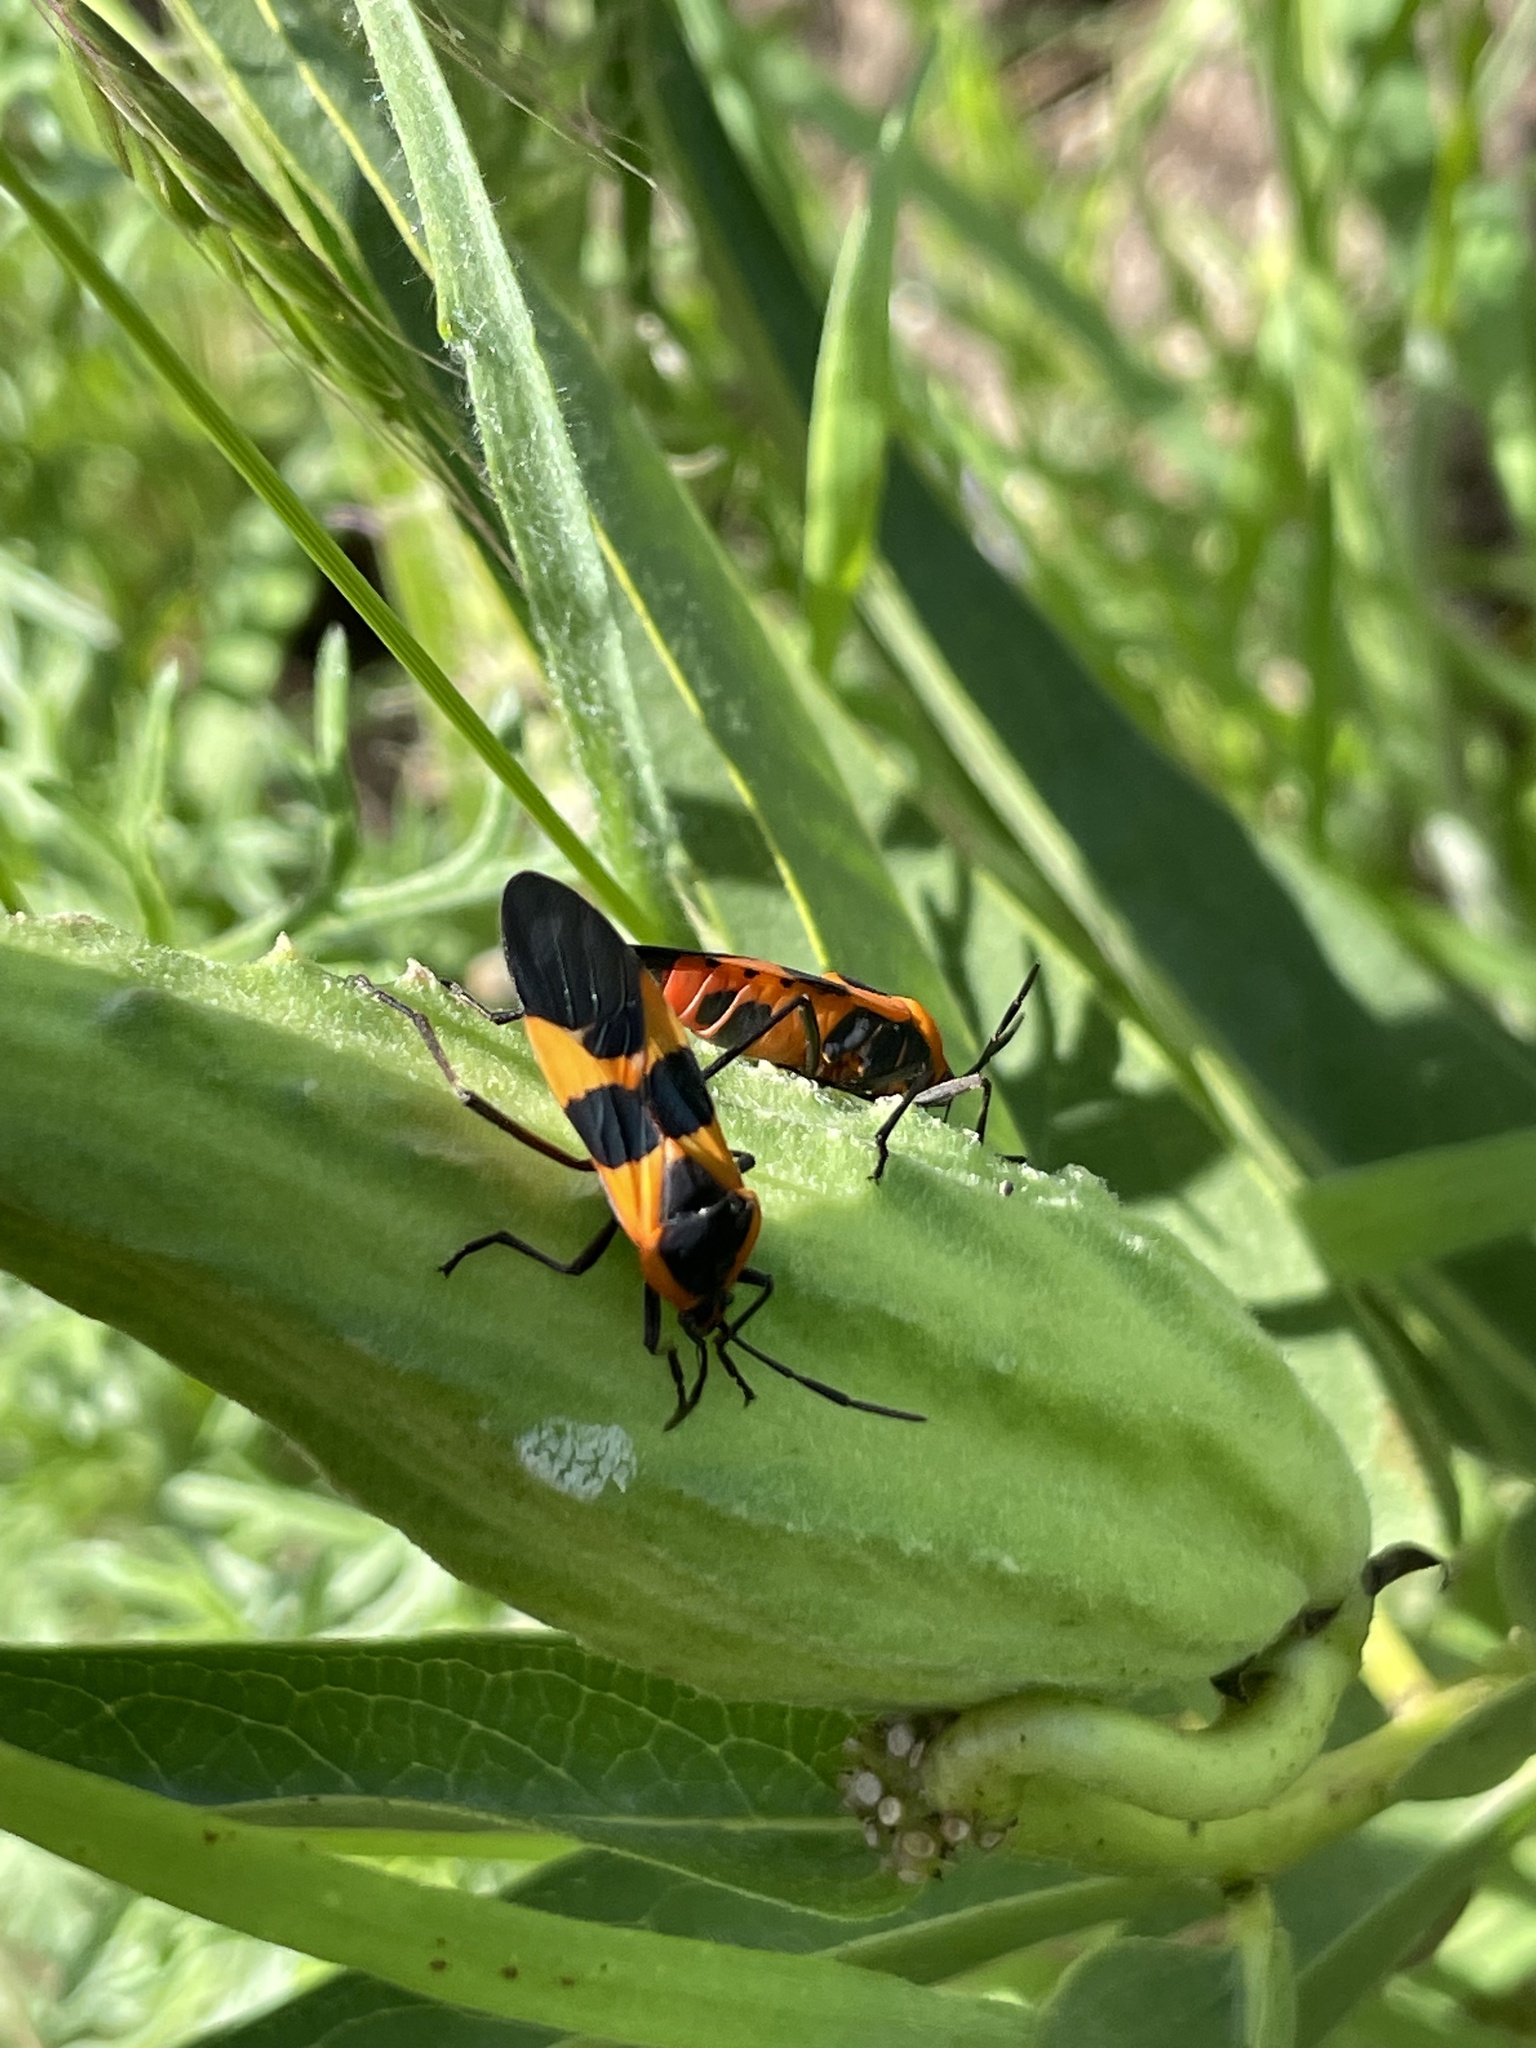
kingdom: Animalia
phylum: Arthropoda
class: Insecta
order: Hemiptera
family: Lygaeidae
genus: Oncopeltus
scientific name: Oncopeltus fasciatus
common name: Large milkweed bug
